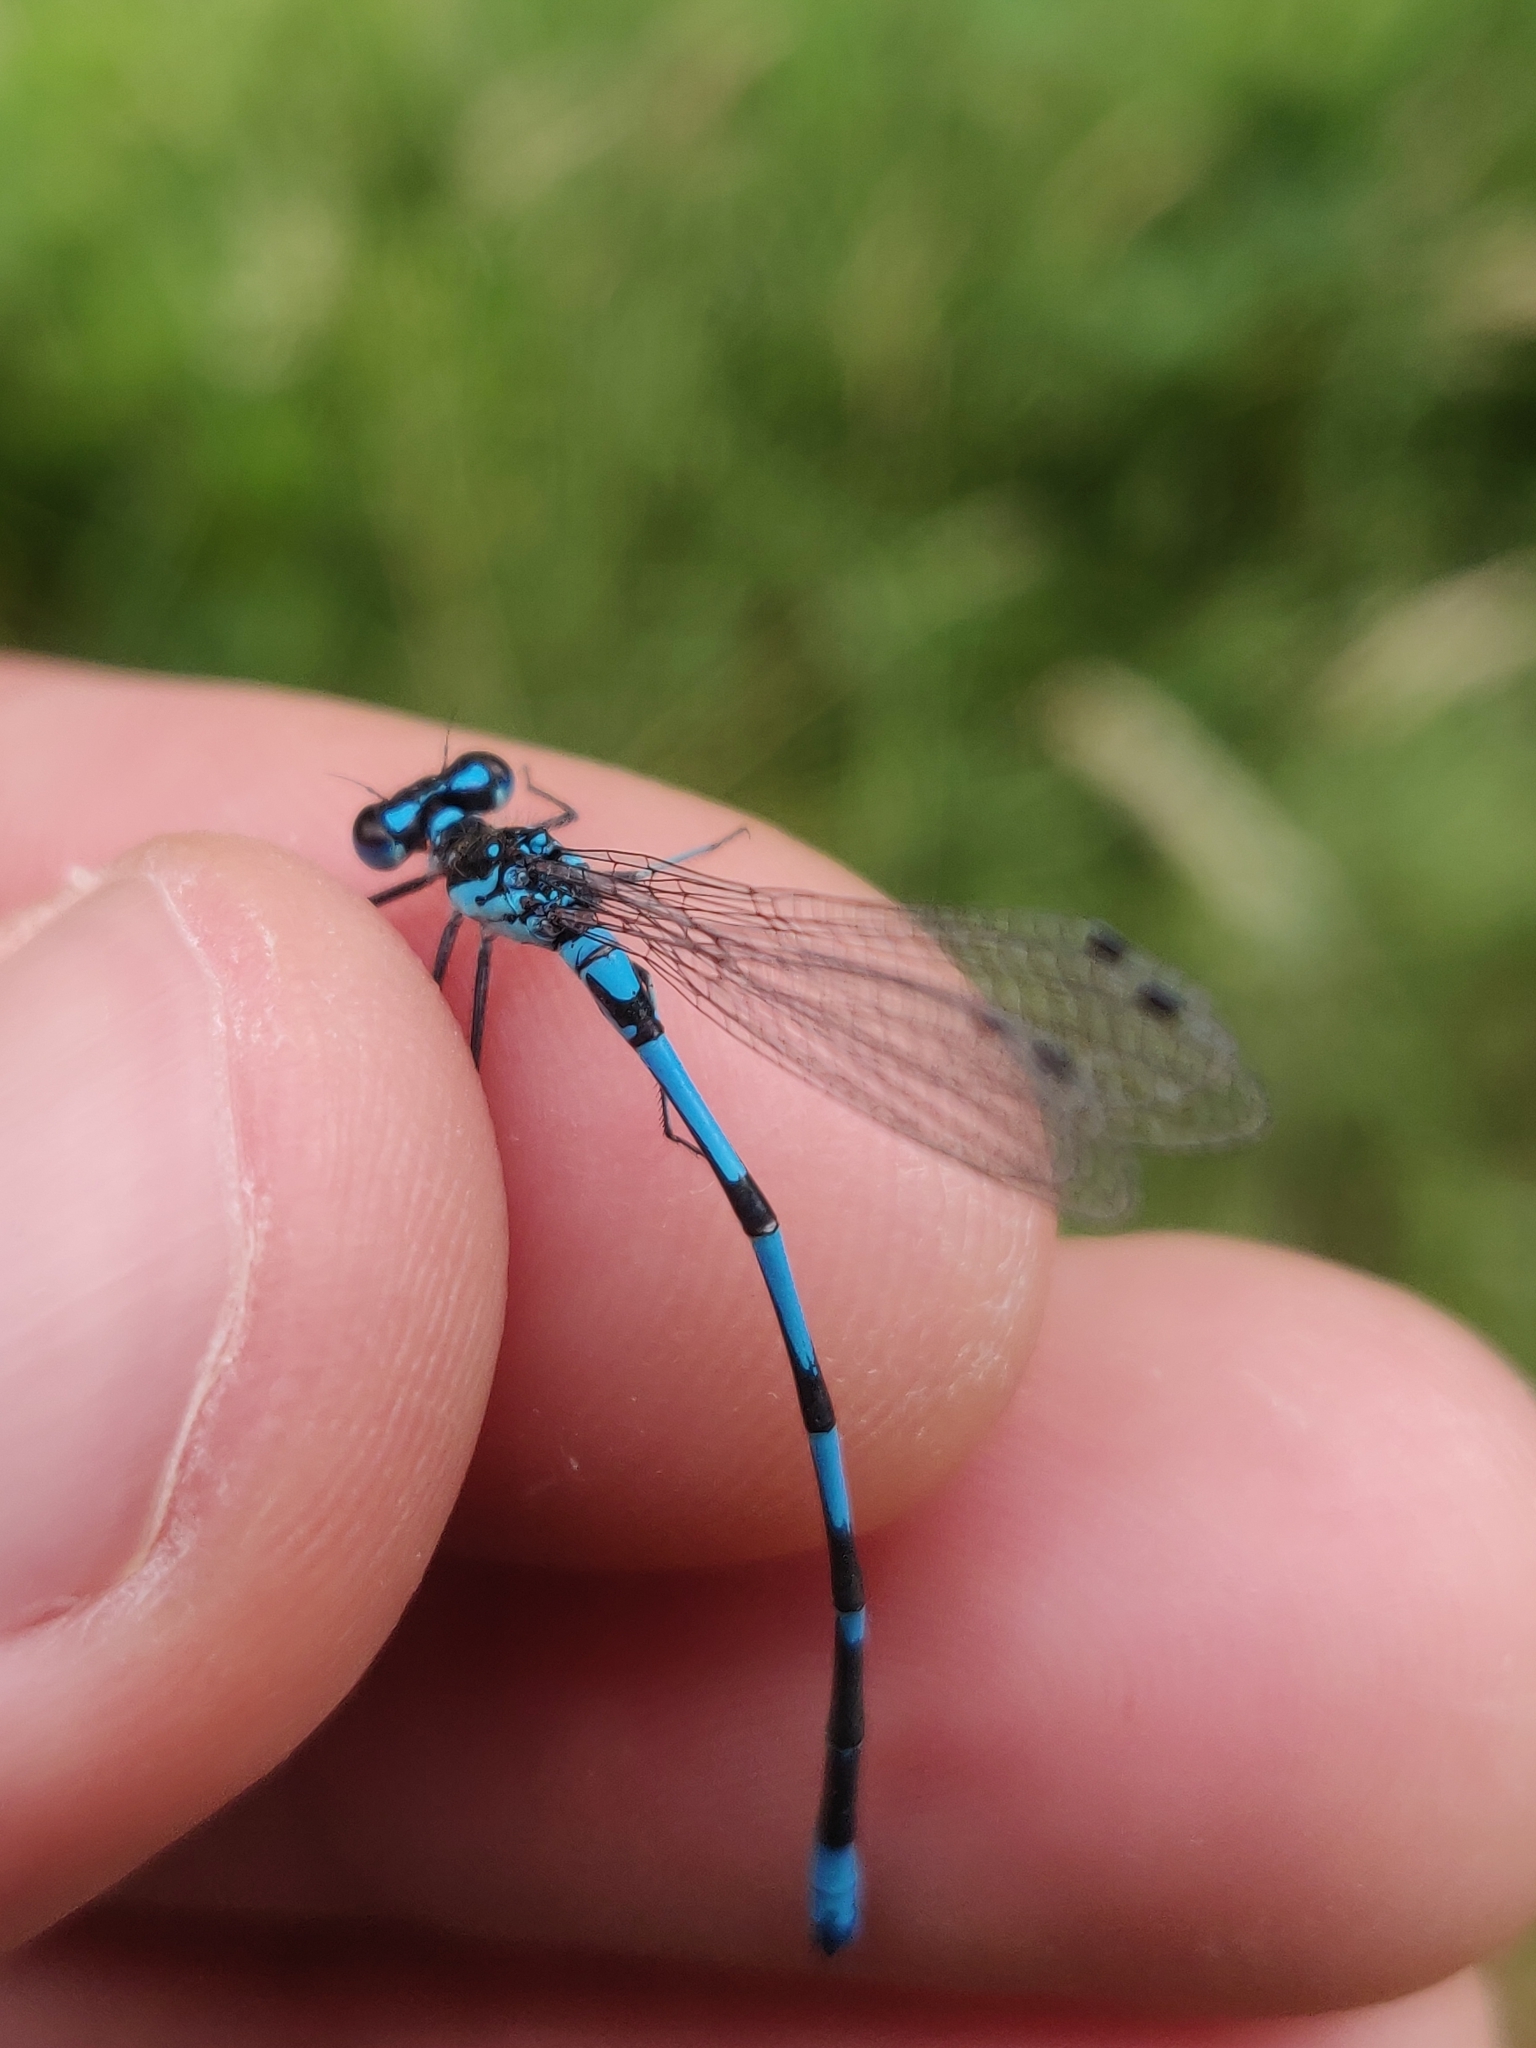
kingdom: Animalia
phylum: Arthropoda
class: Insecta
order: Odonata
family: Coenagrionidae
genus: Coenagrion
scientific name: Coenagrion pulchellum
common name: Variable bluet
